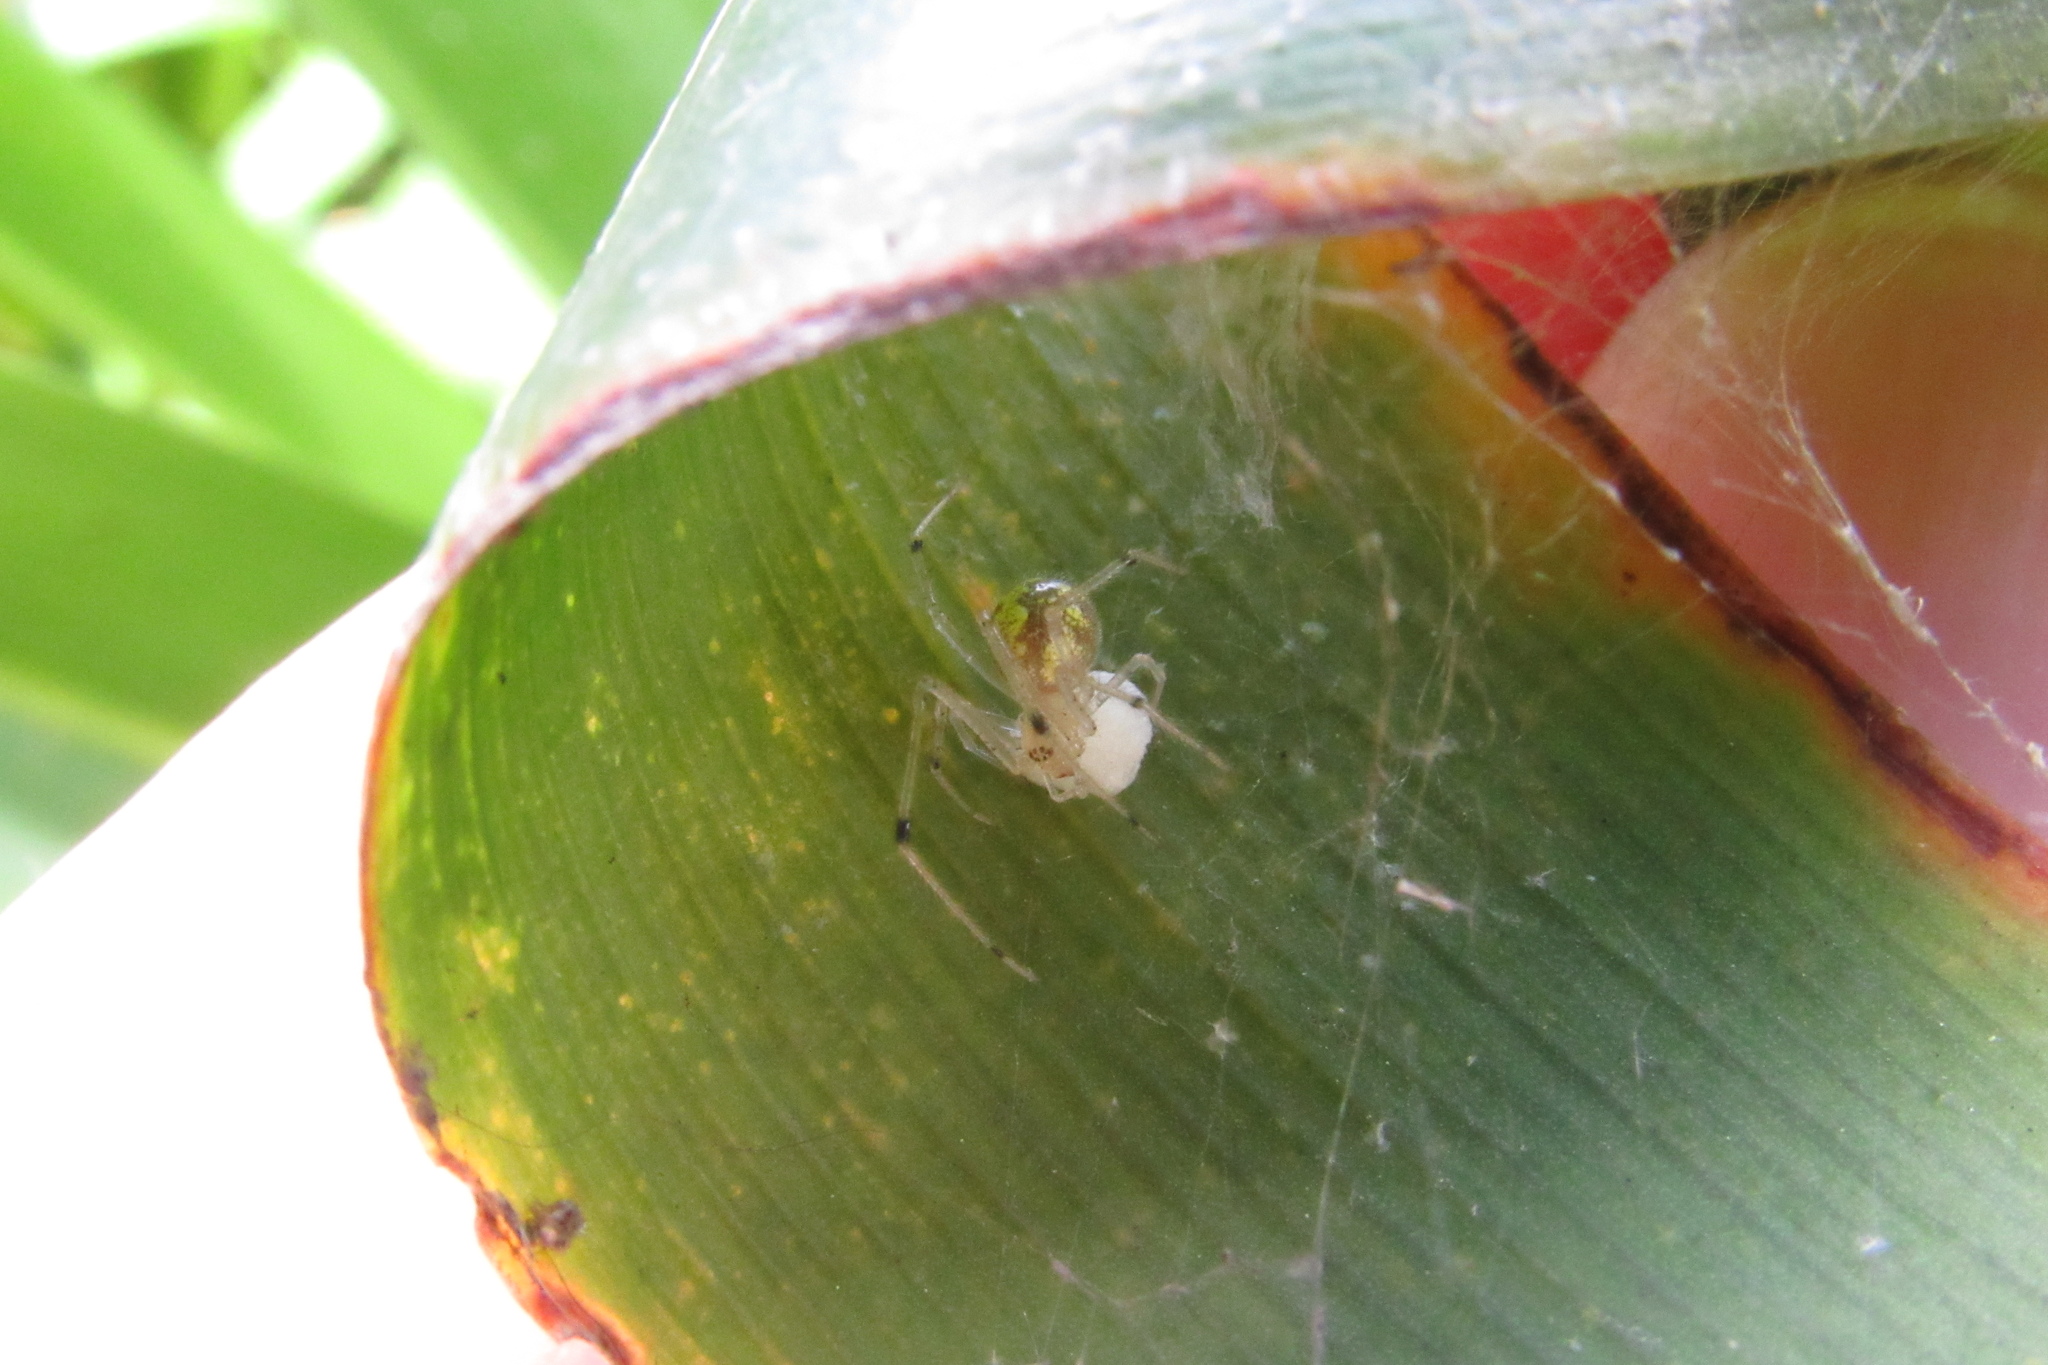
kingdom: Animalia
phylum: Arthropoda
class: Arachnida
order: Araneae
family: Theridiidae
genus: Theridion
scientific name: Theridion frizzellorum
